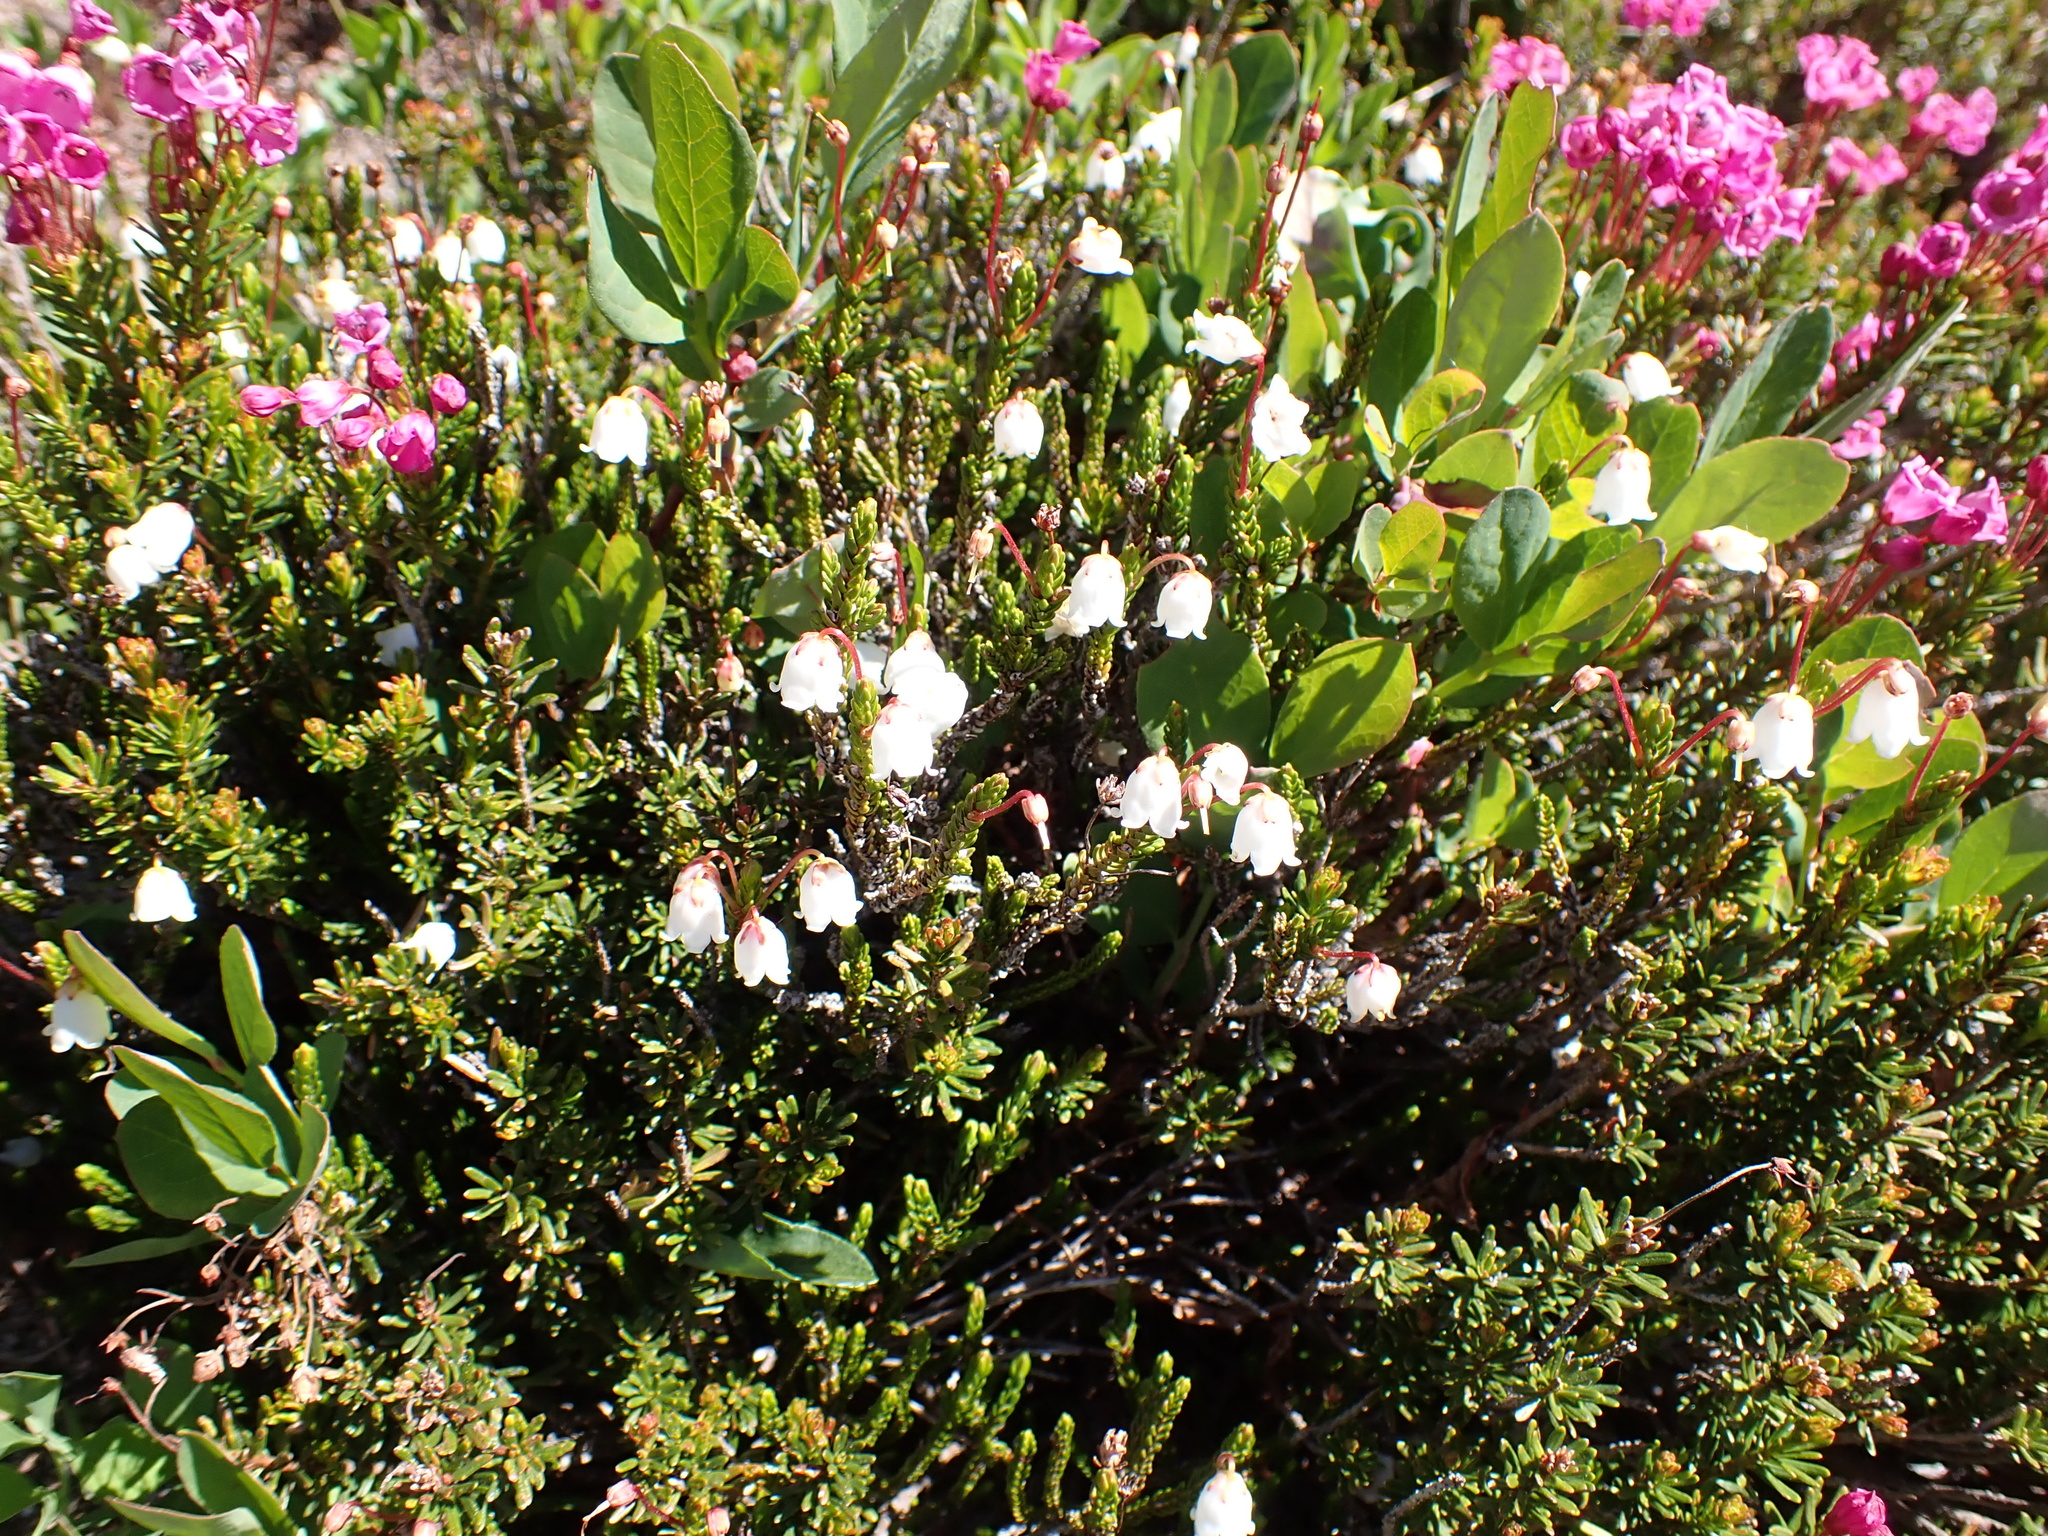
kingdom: Plantae
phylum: Tracheophyta
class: Magnoliopsida
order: Ericales
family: Ericaceae
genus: Cassiope
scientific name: Cassiope mertensiana
